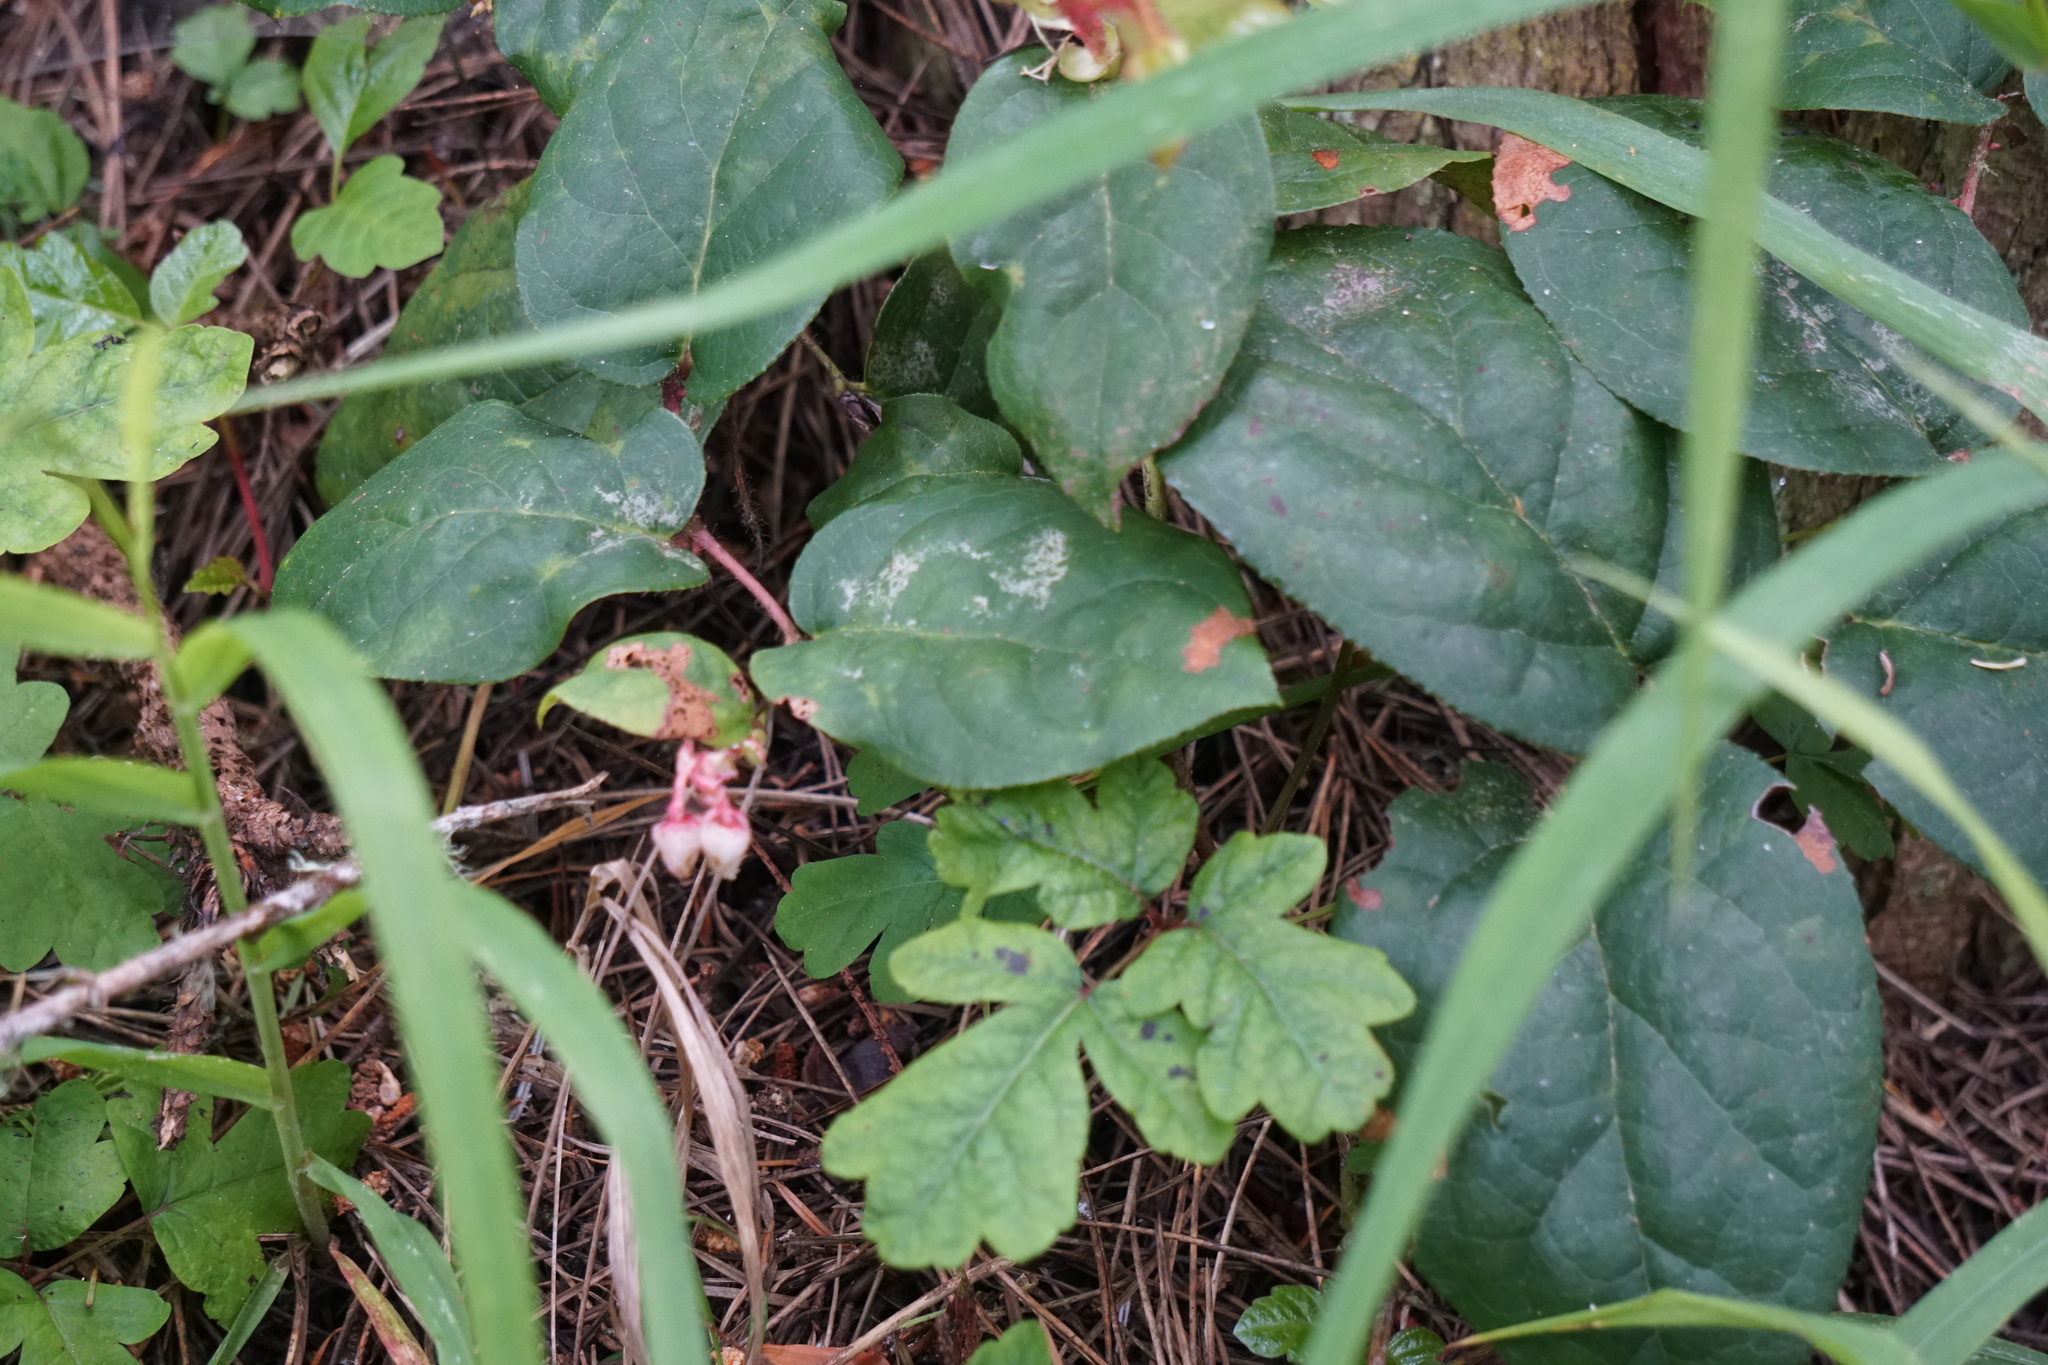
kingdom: Plantae
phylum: Tracheophyta
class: Magnoliopsida
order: Ericales
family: Ericaceae
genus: Gaultheria
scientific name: Gaultheria shallon
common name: Shallon
